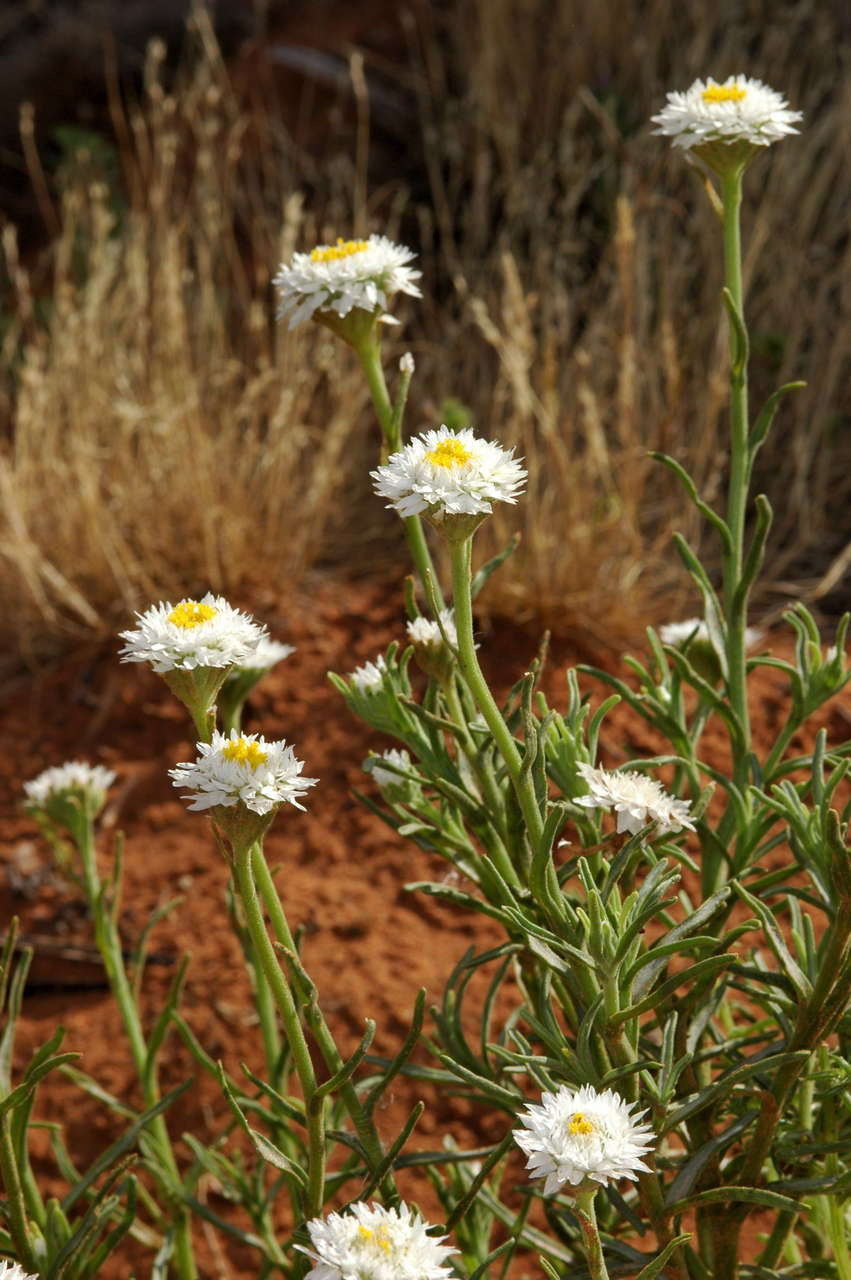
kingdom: Plantae
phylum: Tracheophyta
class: Magnoliopsida
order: Asterales
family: Asteraceae
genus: Polycalymma
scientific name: Polycalymma stuartii
